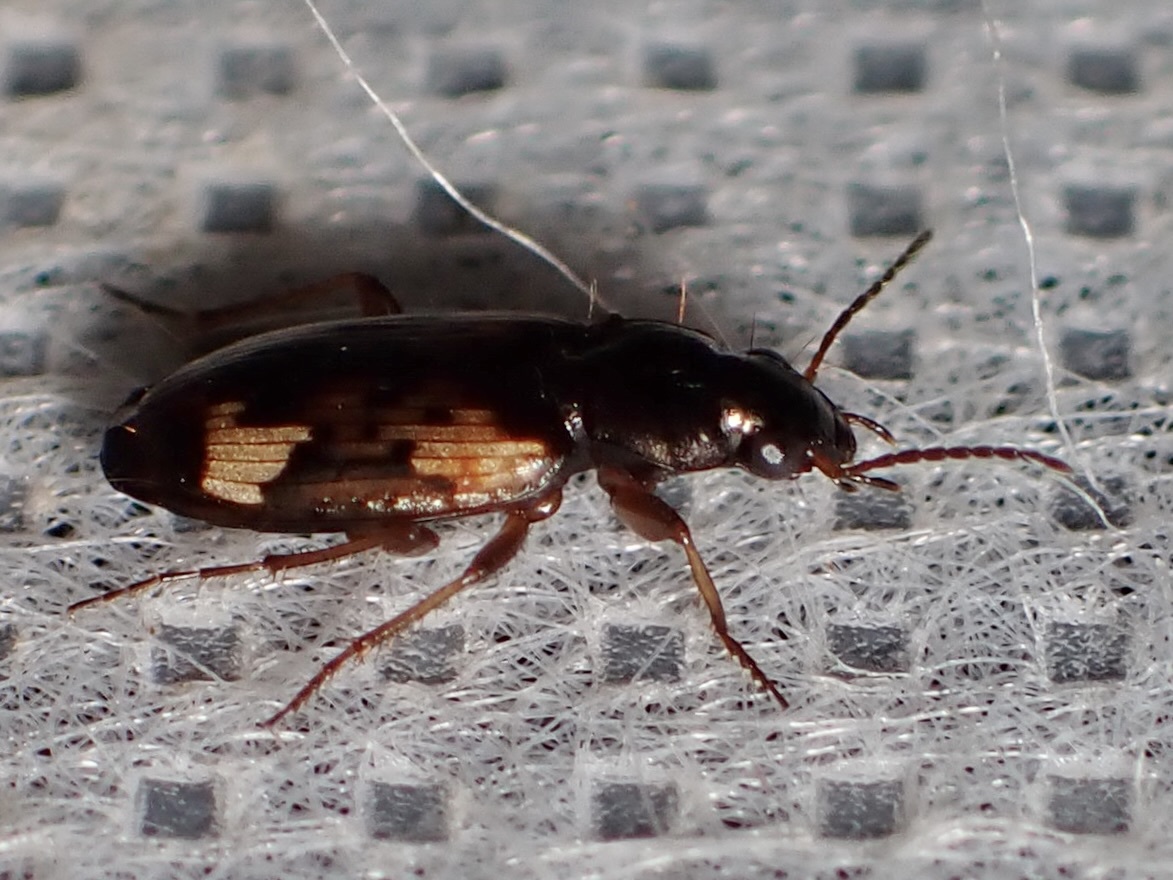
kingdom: Animalia
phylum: Arthropoda
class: Insecta
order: Coleoptera
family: Carabidae
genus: Tetragonoderus
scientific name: Tetragonoderus intersectus
